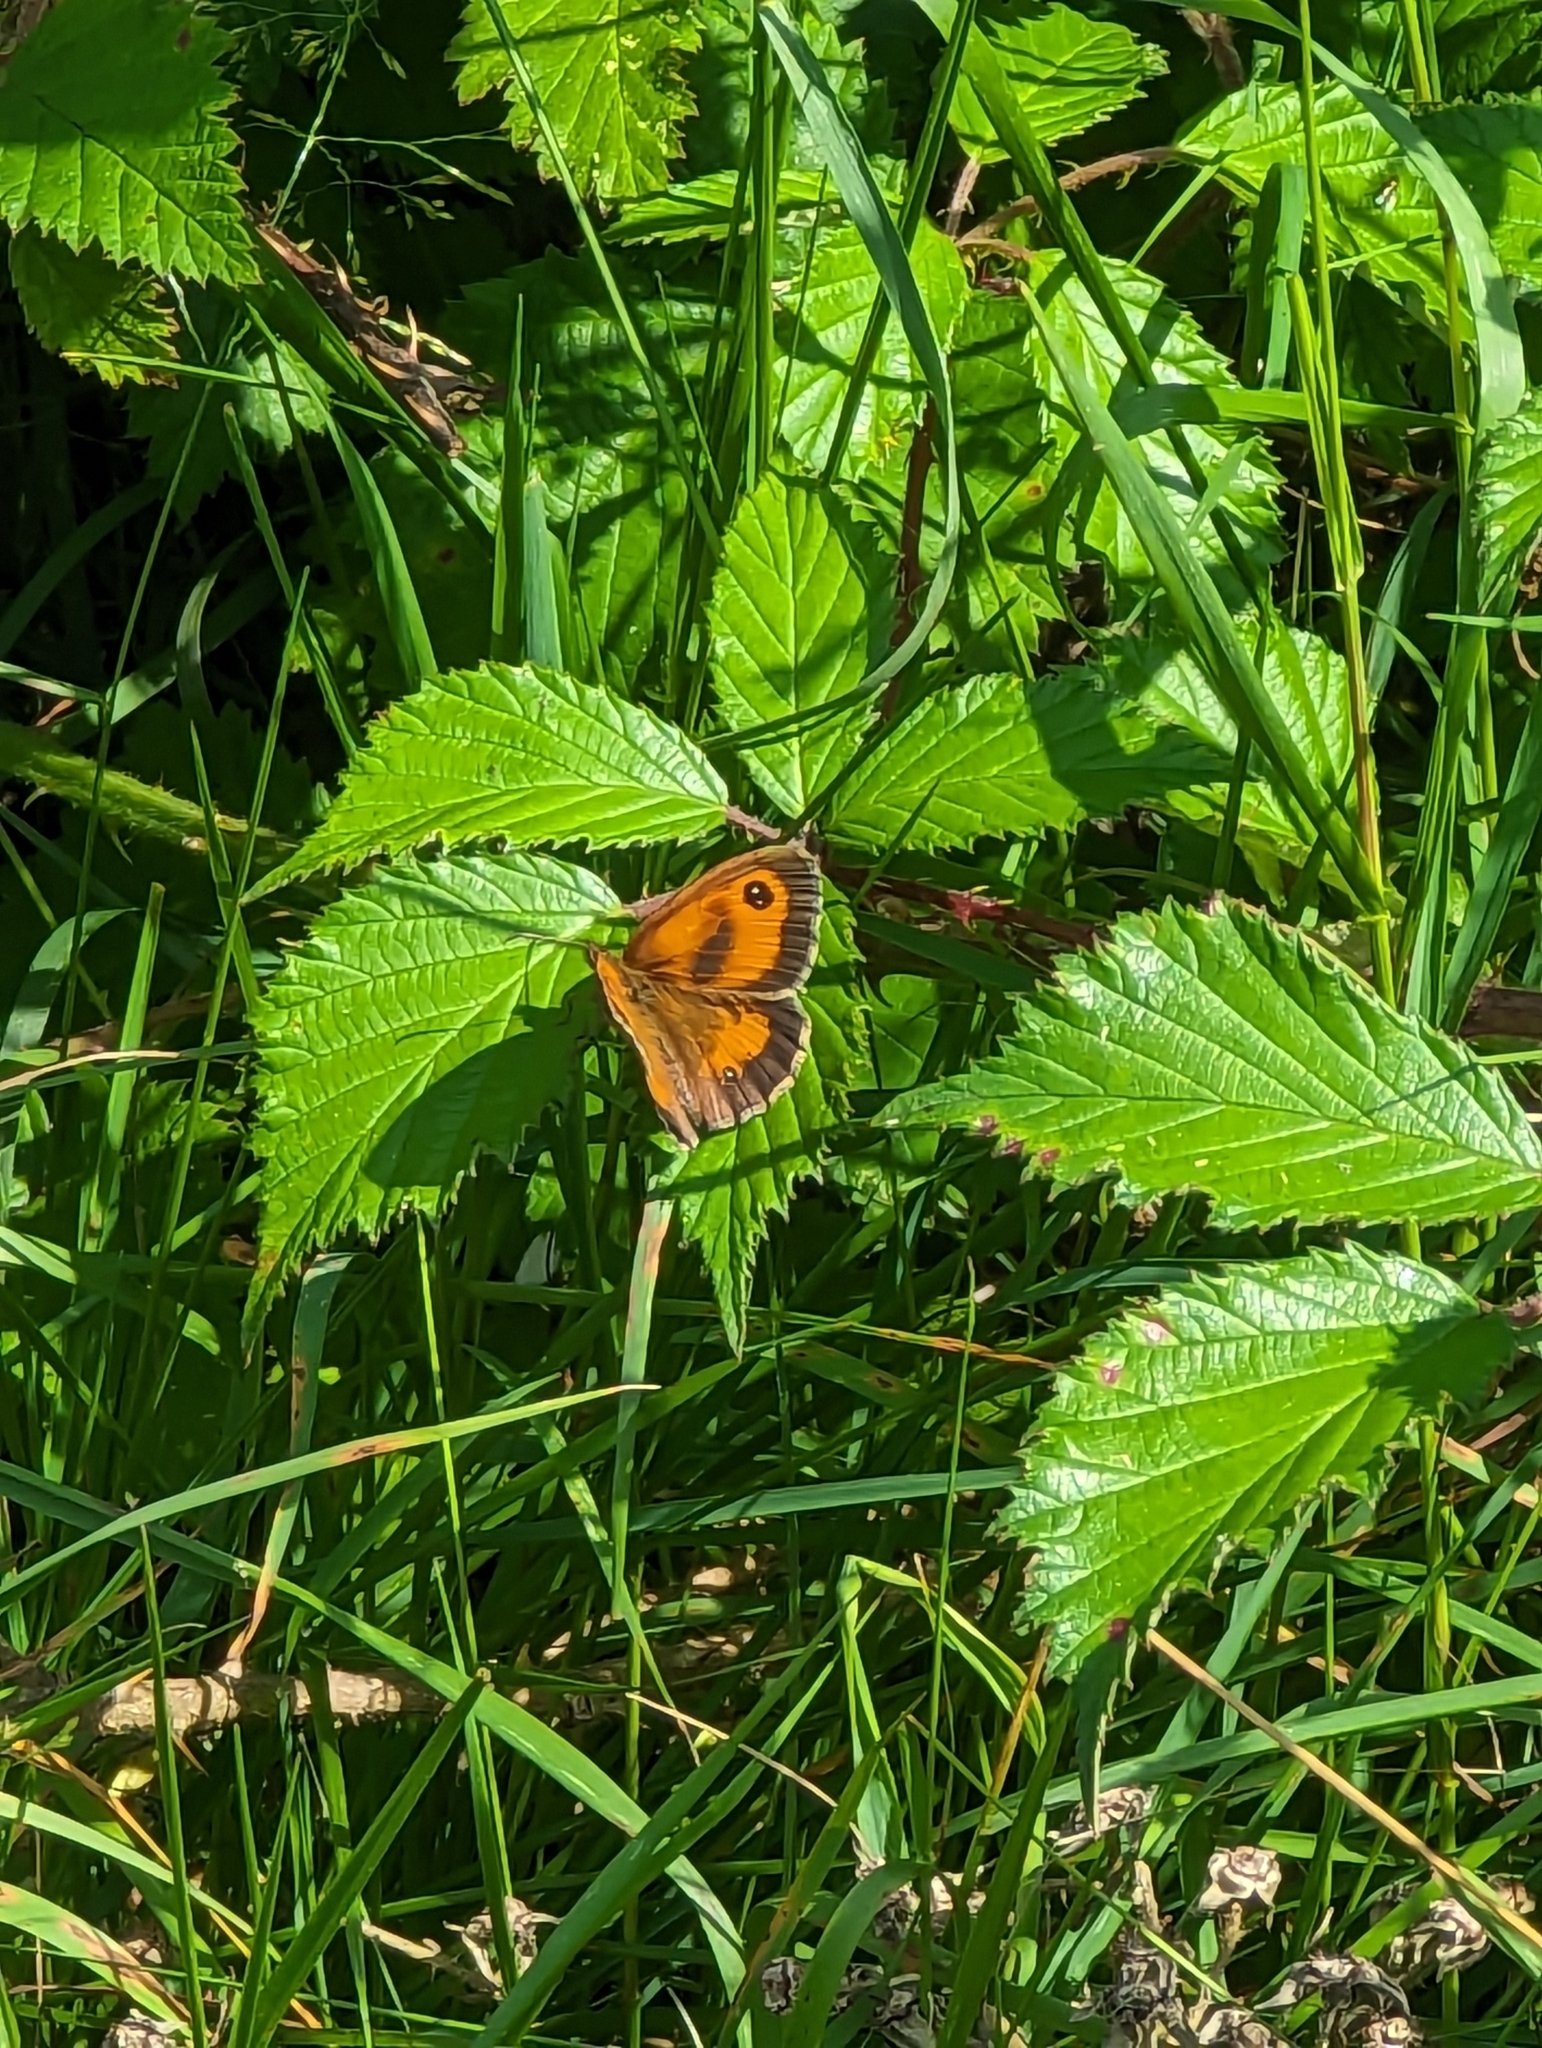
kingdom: Animalia
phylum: Arthropoda
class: Insecta
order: Lepidoptera
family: Nymphalidae
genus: Pyronia
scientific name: Pyronia tithonus
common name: Gatekeeper
